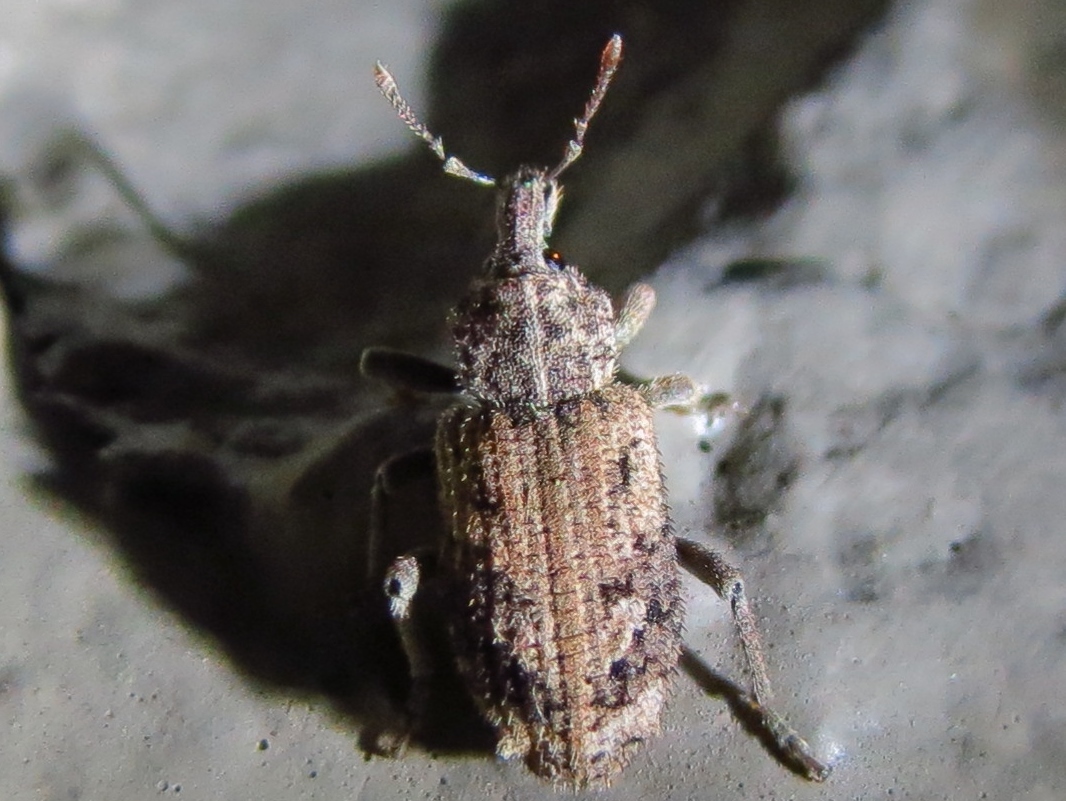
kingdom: Animalia
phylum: Arthropoda
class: Insecta
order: Coleoptera
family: Curculionidae
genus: Listroderes
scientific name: Listroderes costirostris
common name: Weevil
